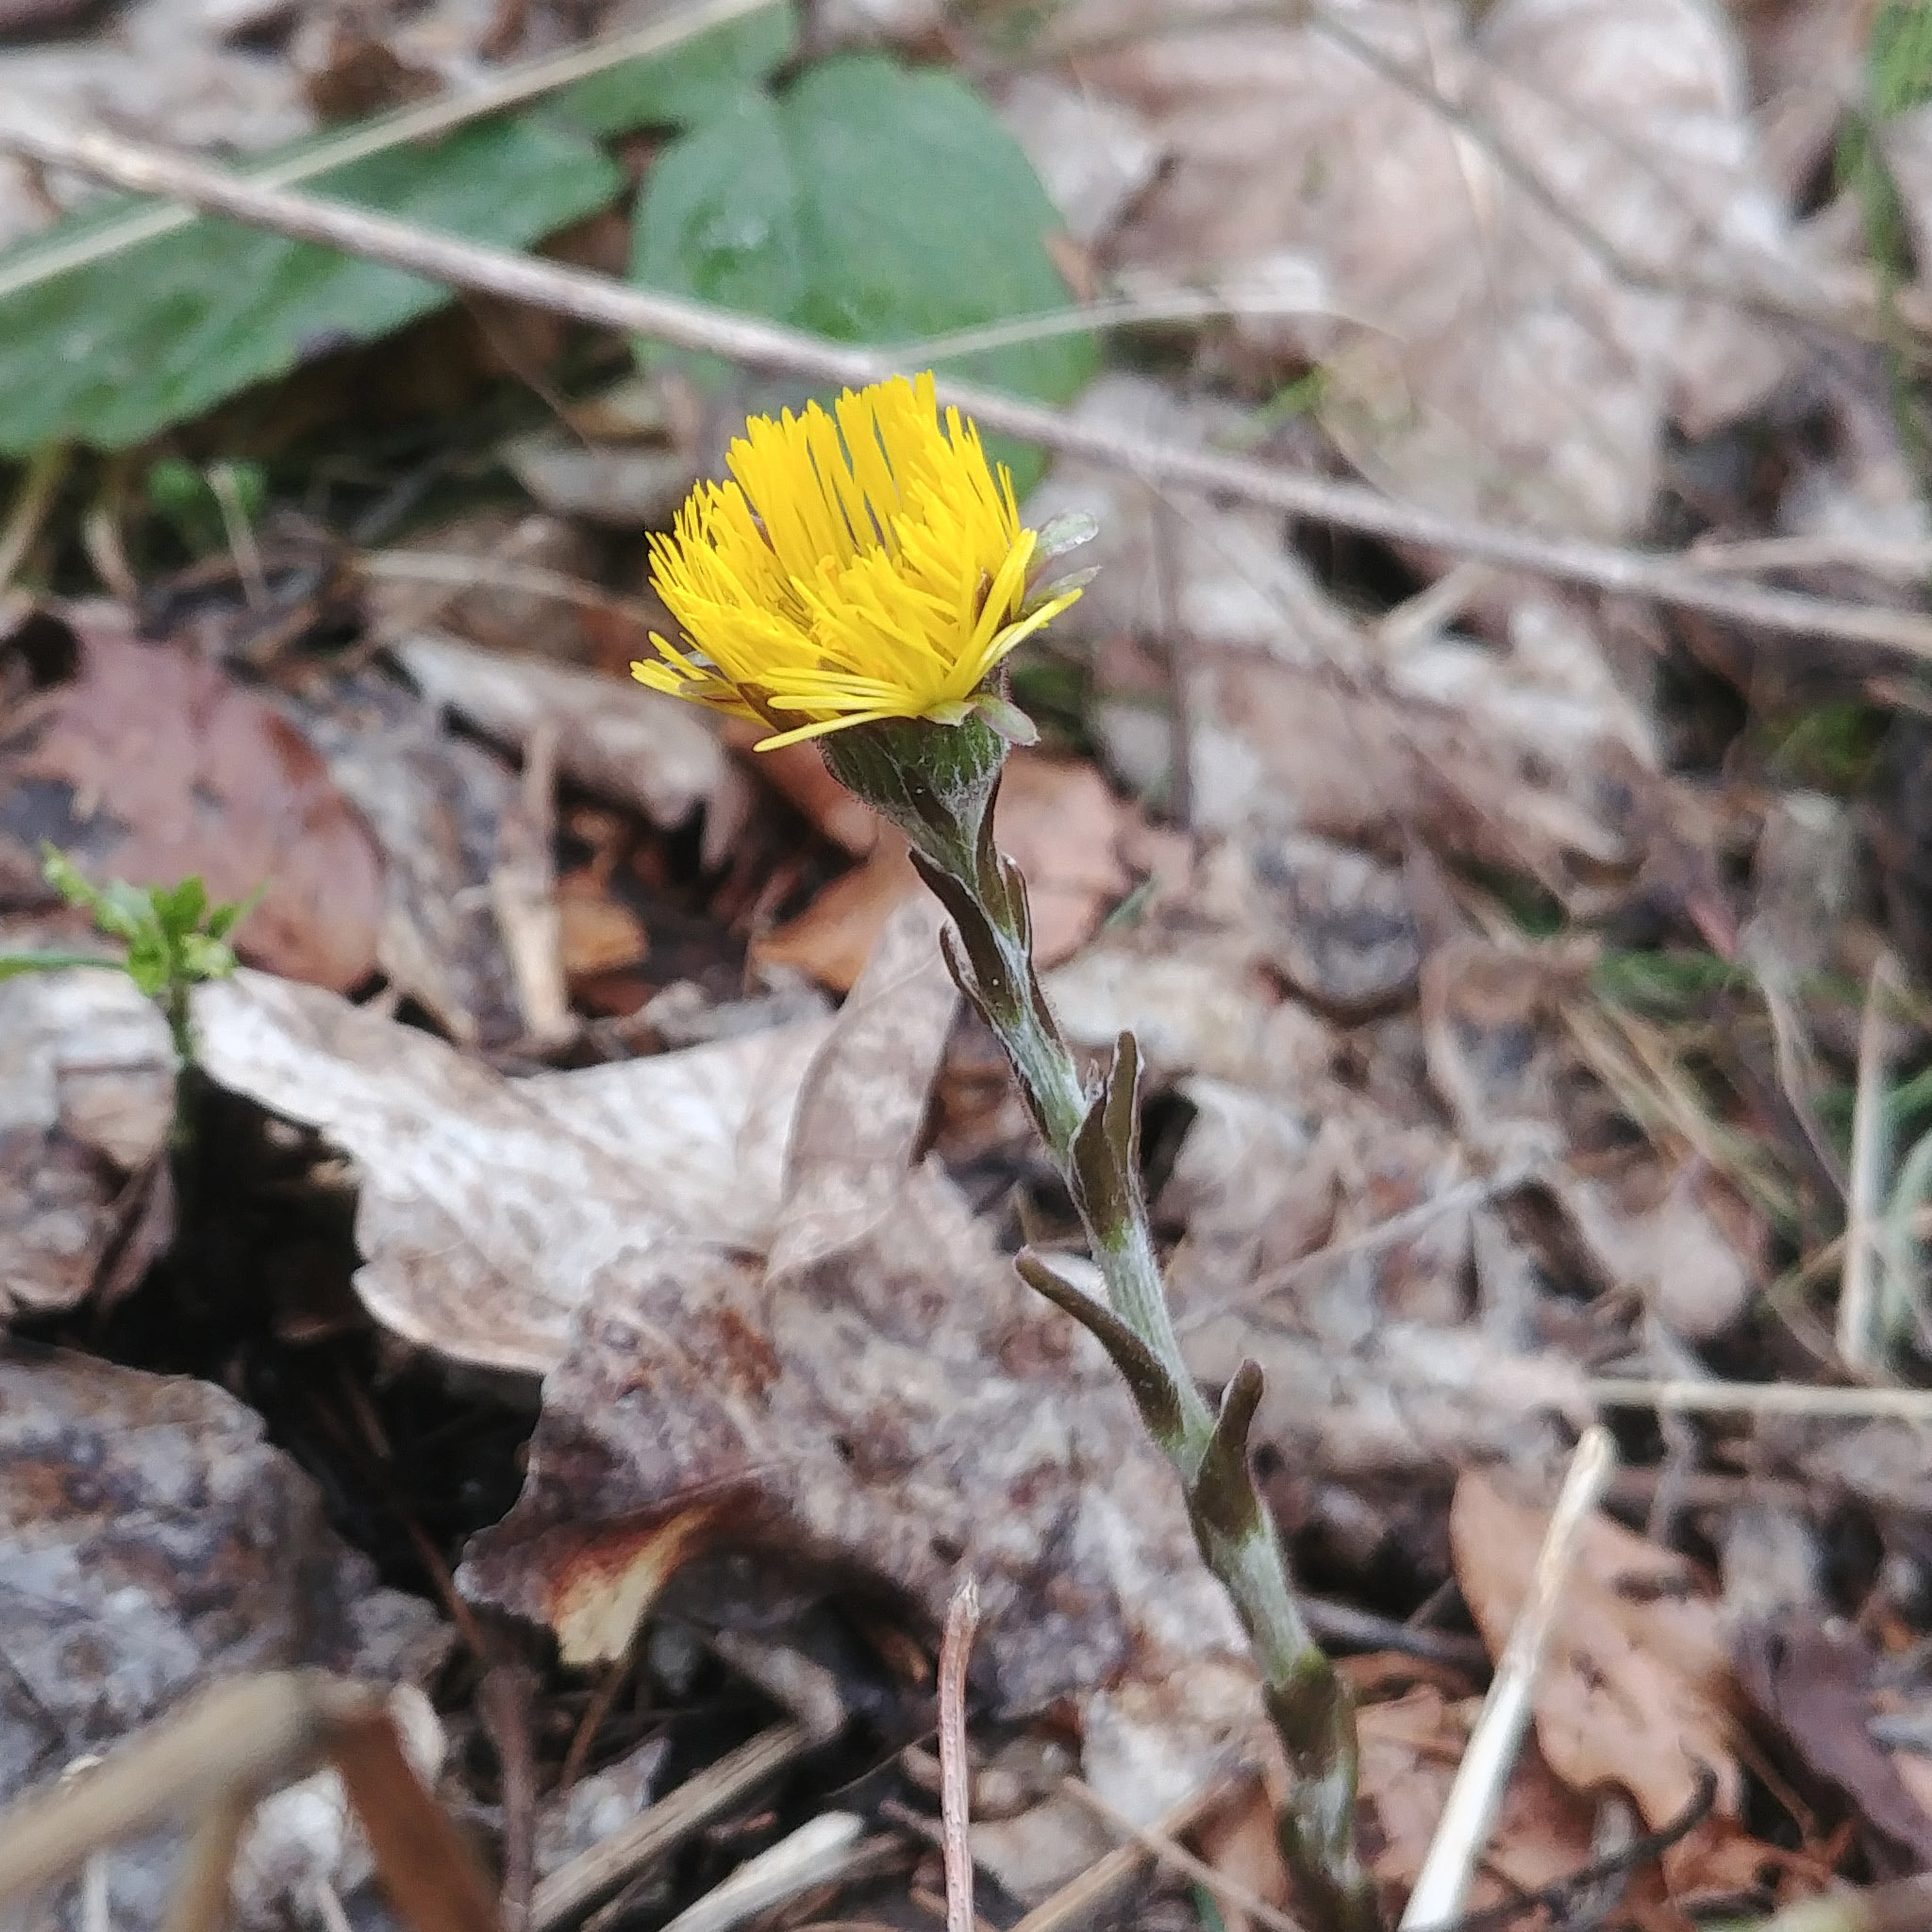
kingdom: Plantae
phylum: Tracheophyta
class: Magnoliopsida
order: Asterales
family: Asteraceae
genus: Tussilago
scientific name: Tussilago farfara
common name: Coltsfoot
